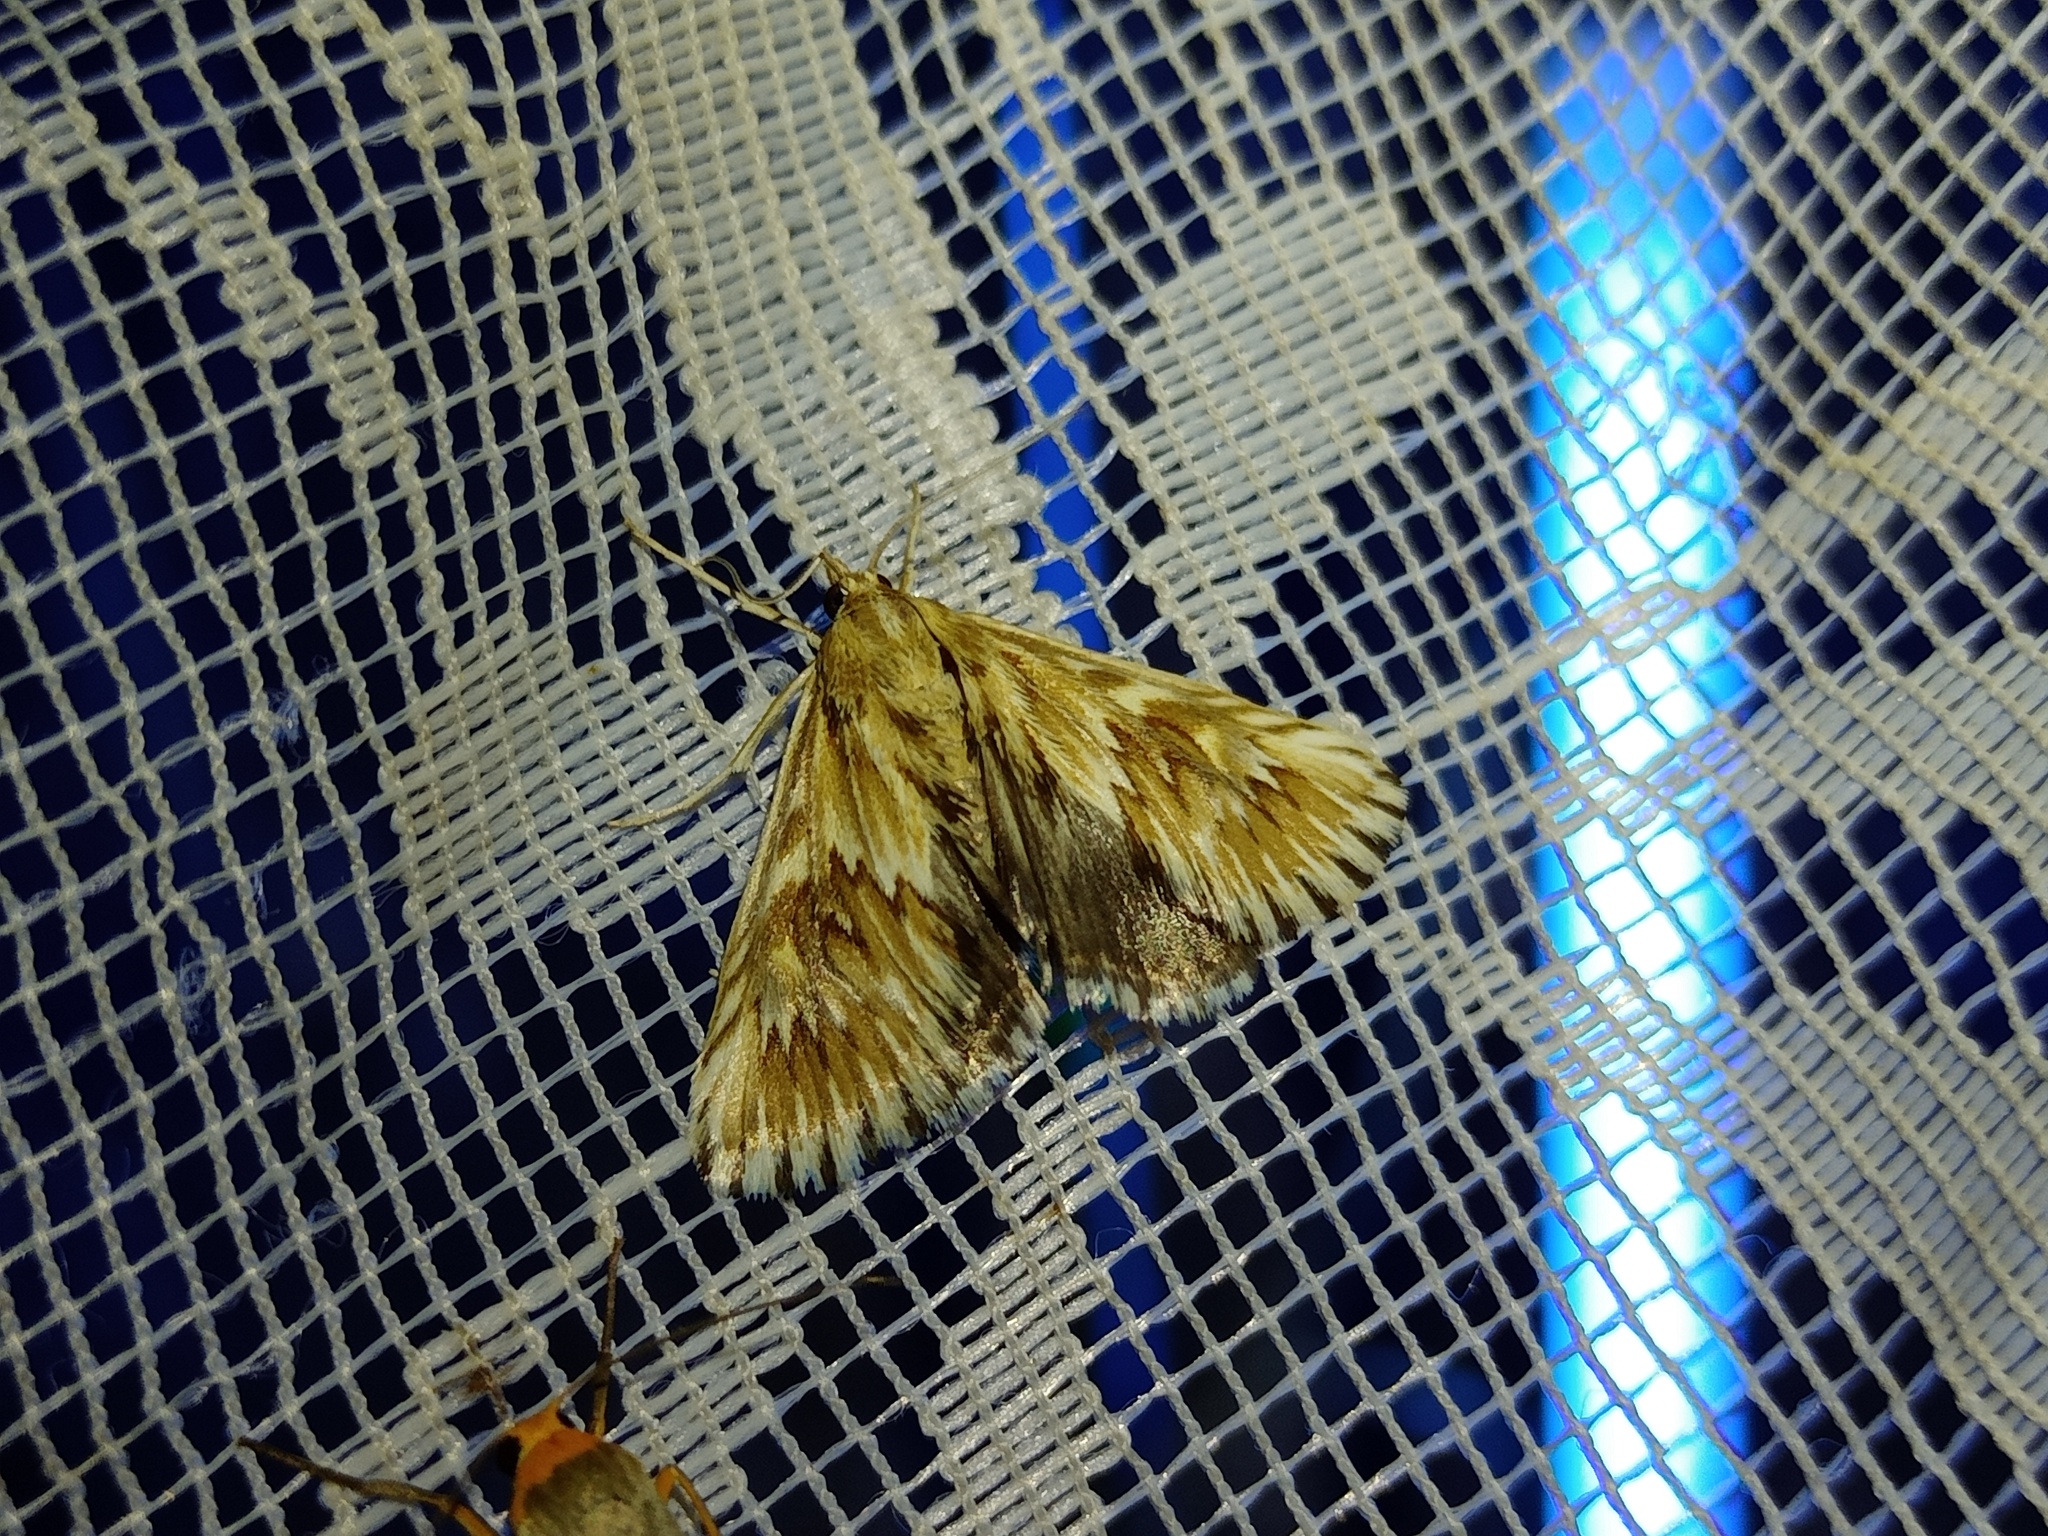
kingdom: Animalia
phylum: Arthropoda
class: Insecta
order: Lepidoptera
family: Crambidae
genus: Cynaeda
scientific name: Cynaeda dentalis
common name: Starry pearl
